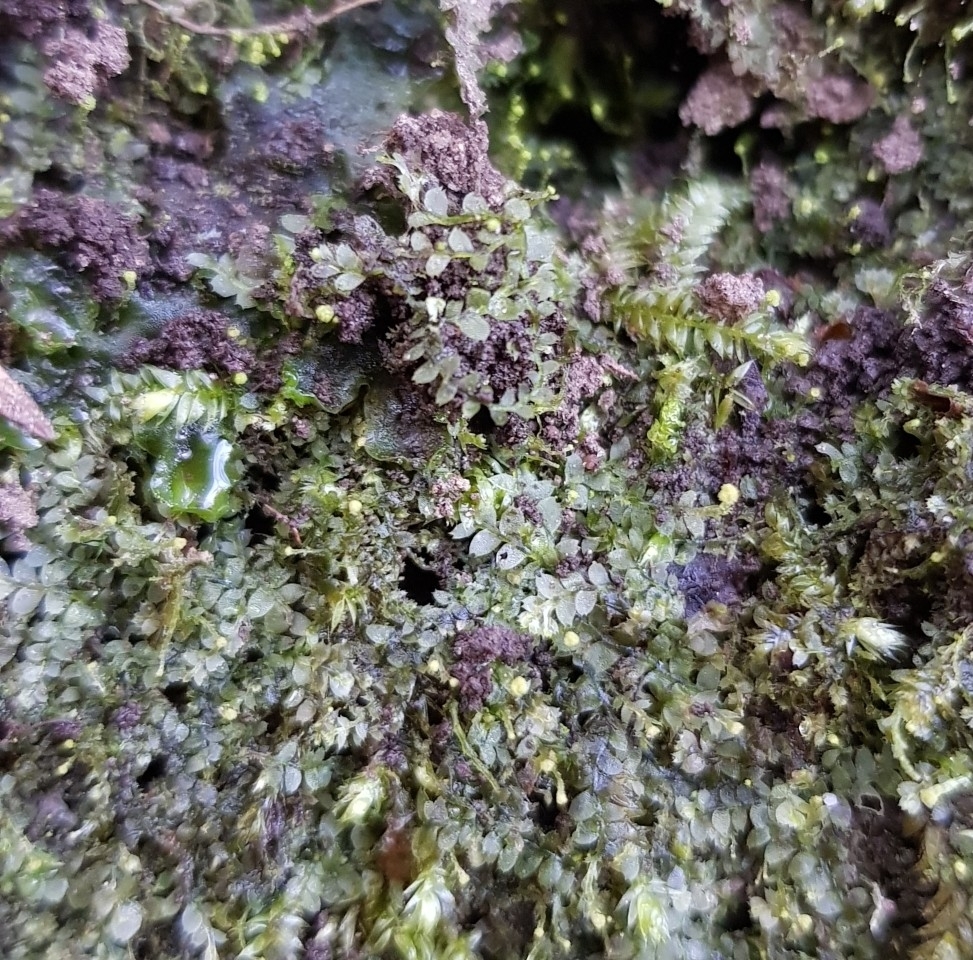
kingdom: Plantae
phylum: Marchantiophyta
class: Jungermanniopsida
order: Jungermanniales
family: Calypogeiaceae
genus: Asperifolia
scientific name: Asperifolia arguta
